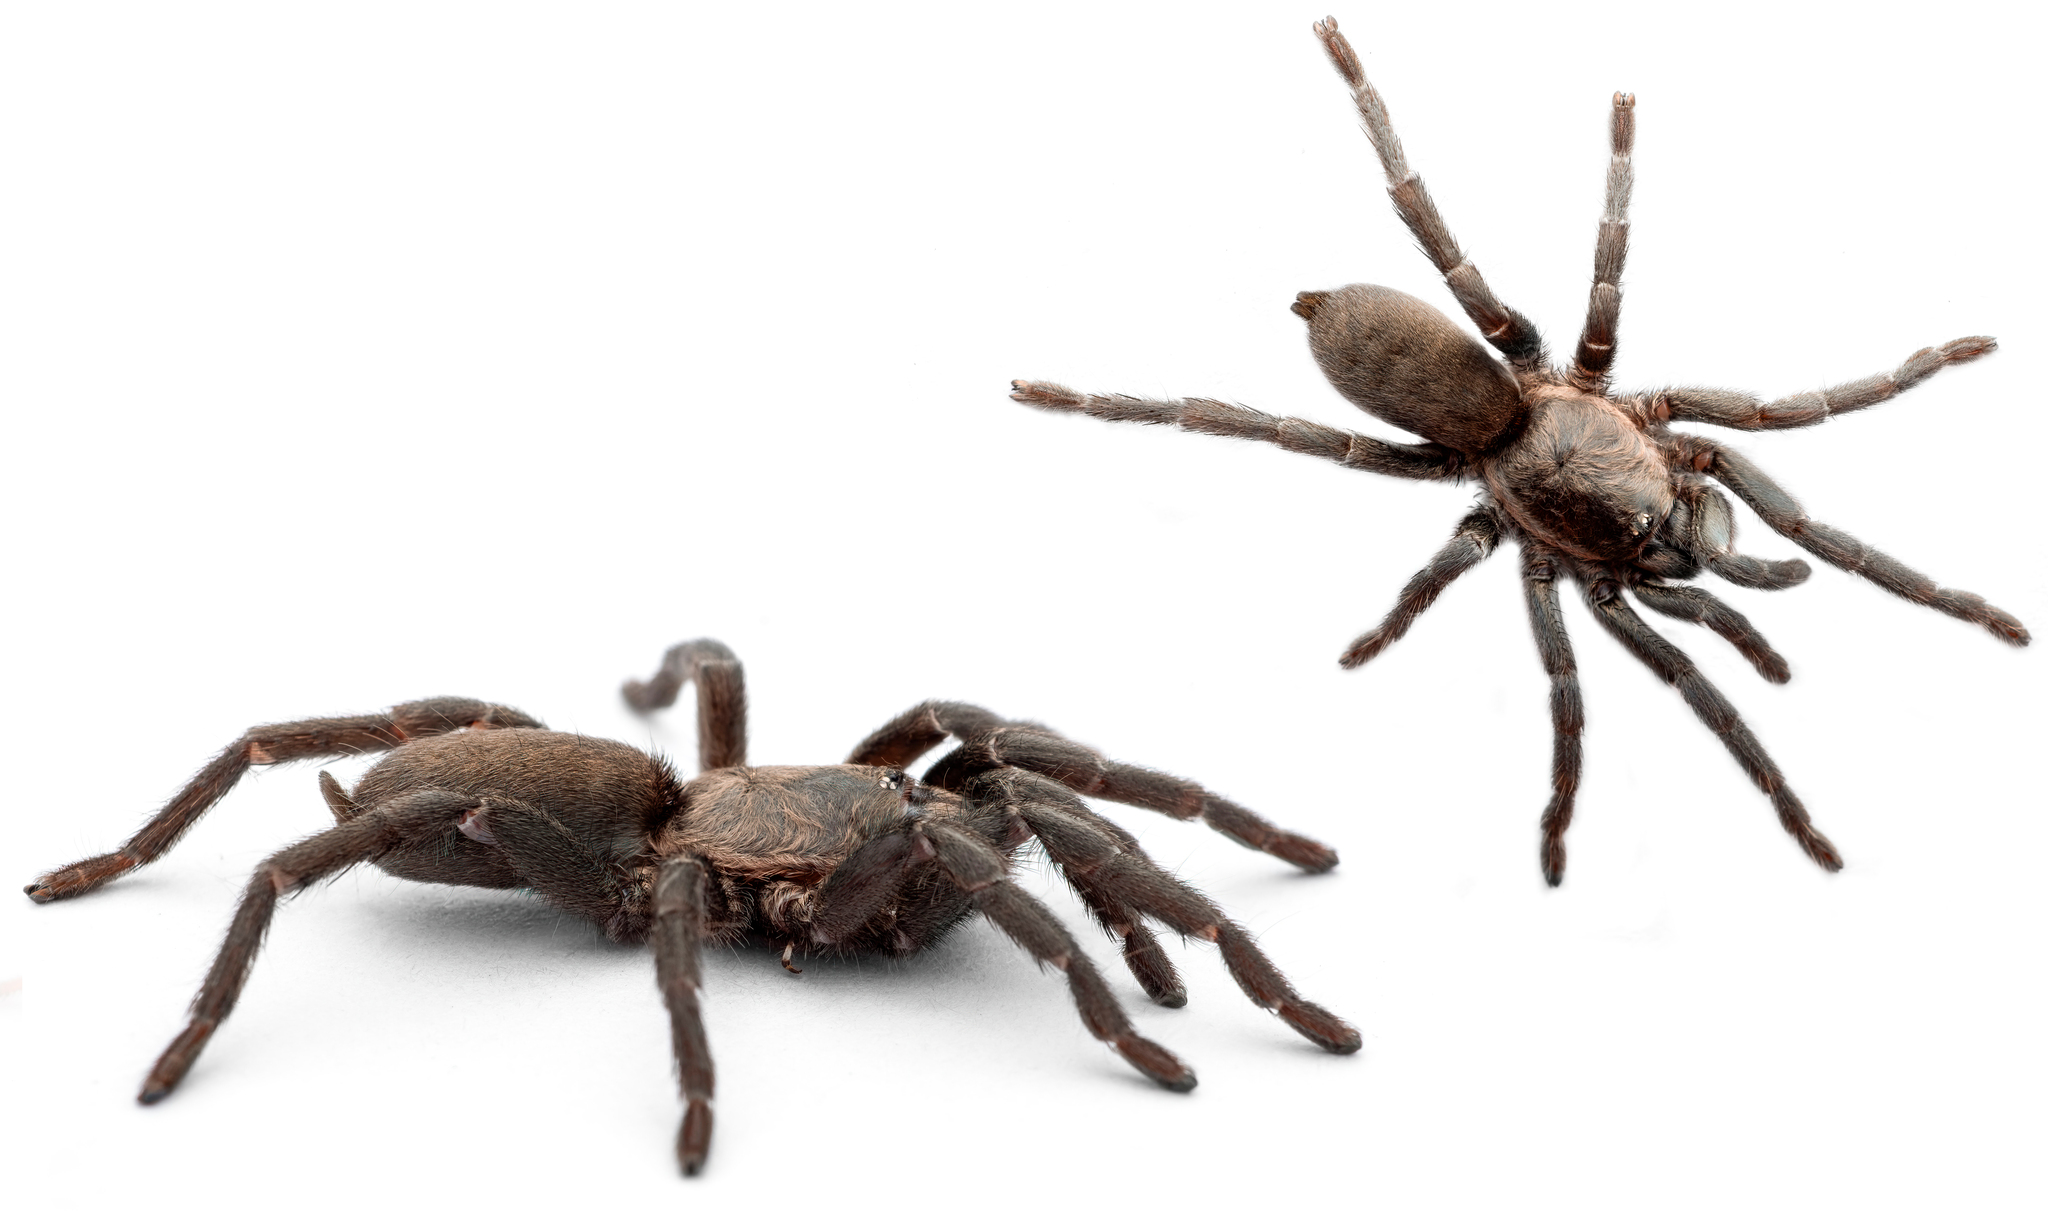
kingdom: Animalia
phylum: Arthropoda
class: Arachnida
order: Araneae
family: Theraphosidae
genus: Ischnocolus
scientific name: Ischnocolus valentinus
